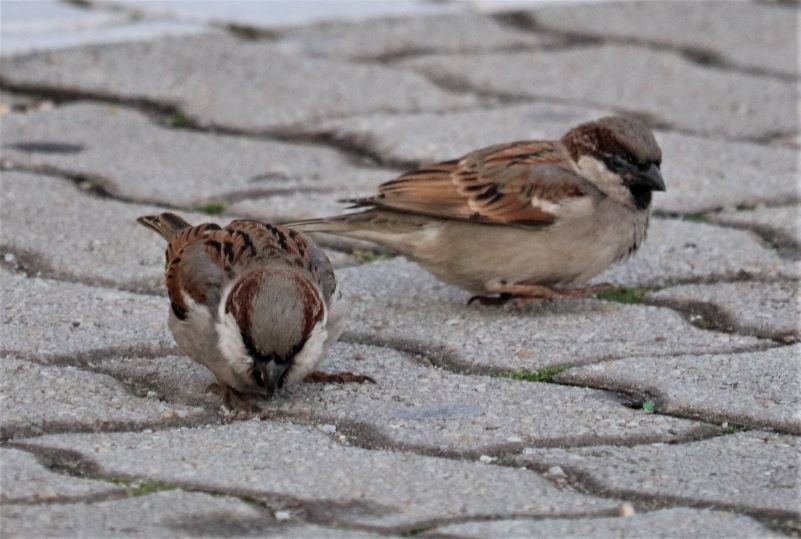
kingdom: Animalia
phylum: Chordata
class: Aves
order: Passeriformes
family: Passeridae
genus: Passer
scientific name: Passer domesticus
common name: House sparrow
